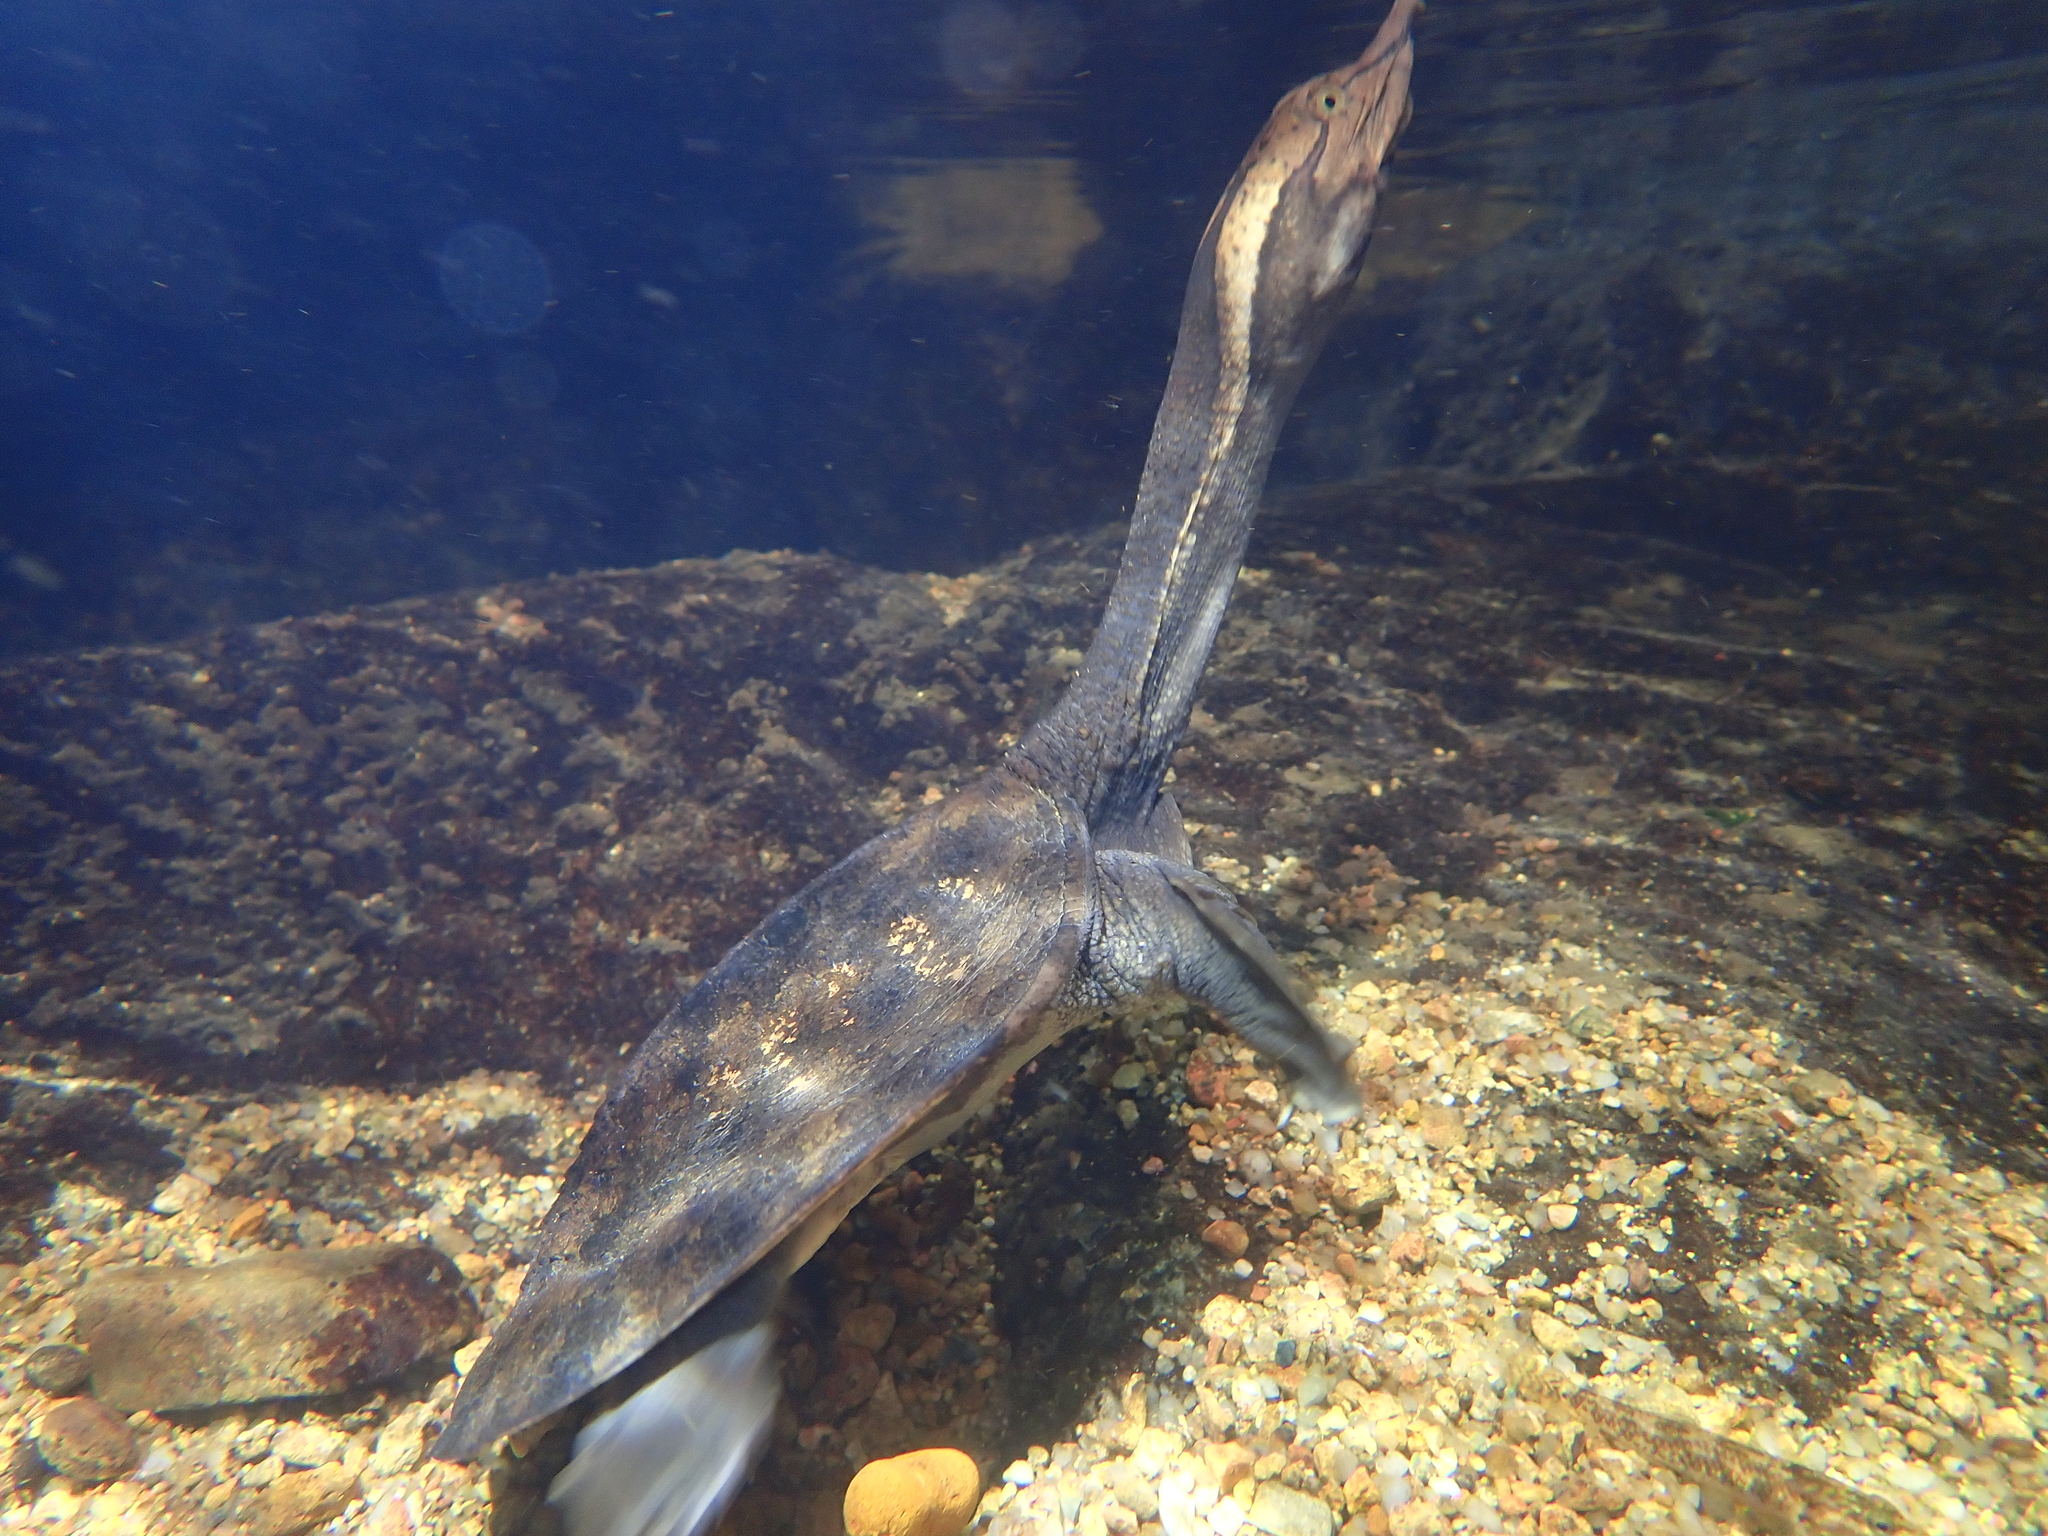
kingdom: Animalia
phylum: Chordata
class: Testudines
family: Trionychidae
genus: Palea
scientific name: Palea steindachneri
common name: Wattle-necked softshell turtle
